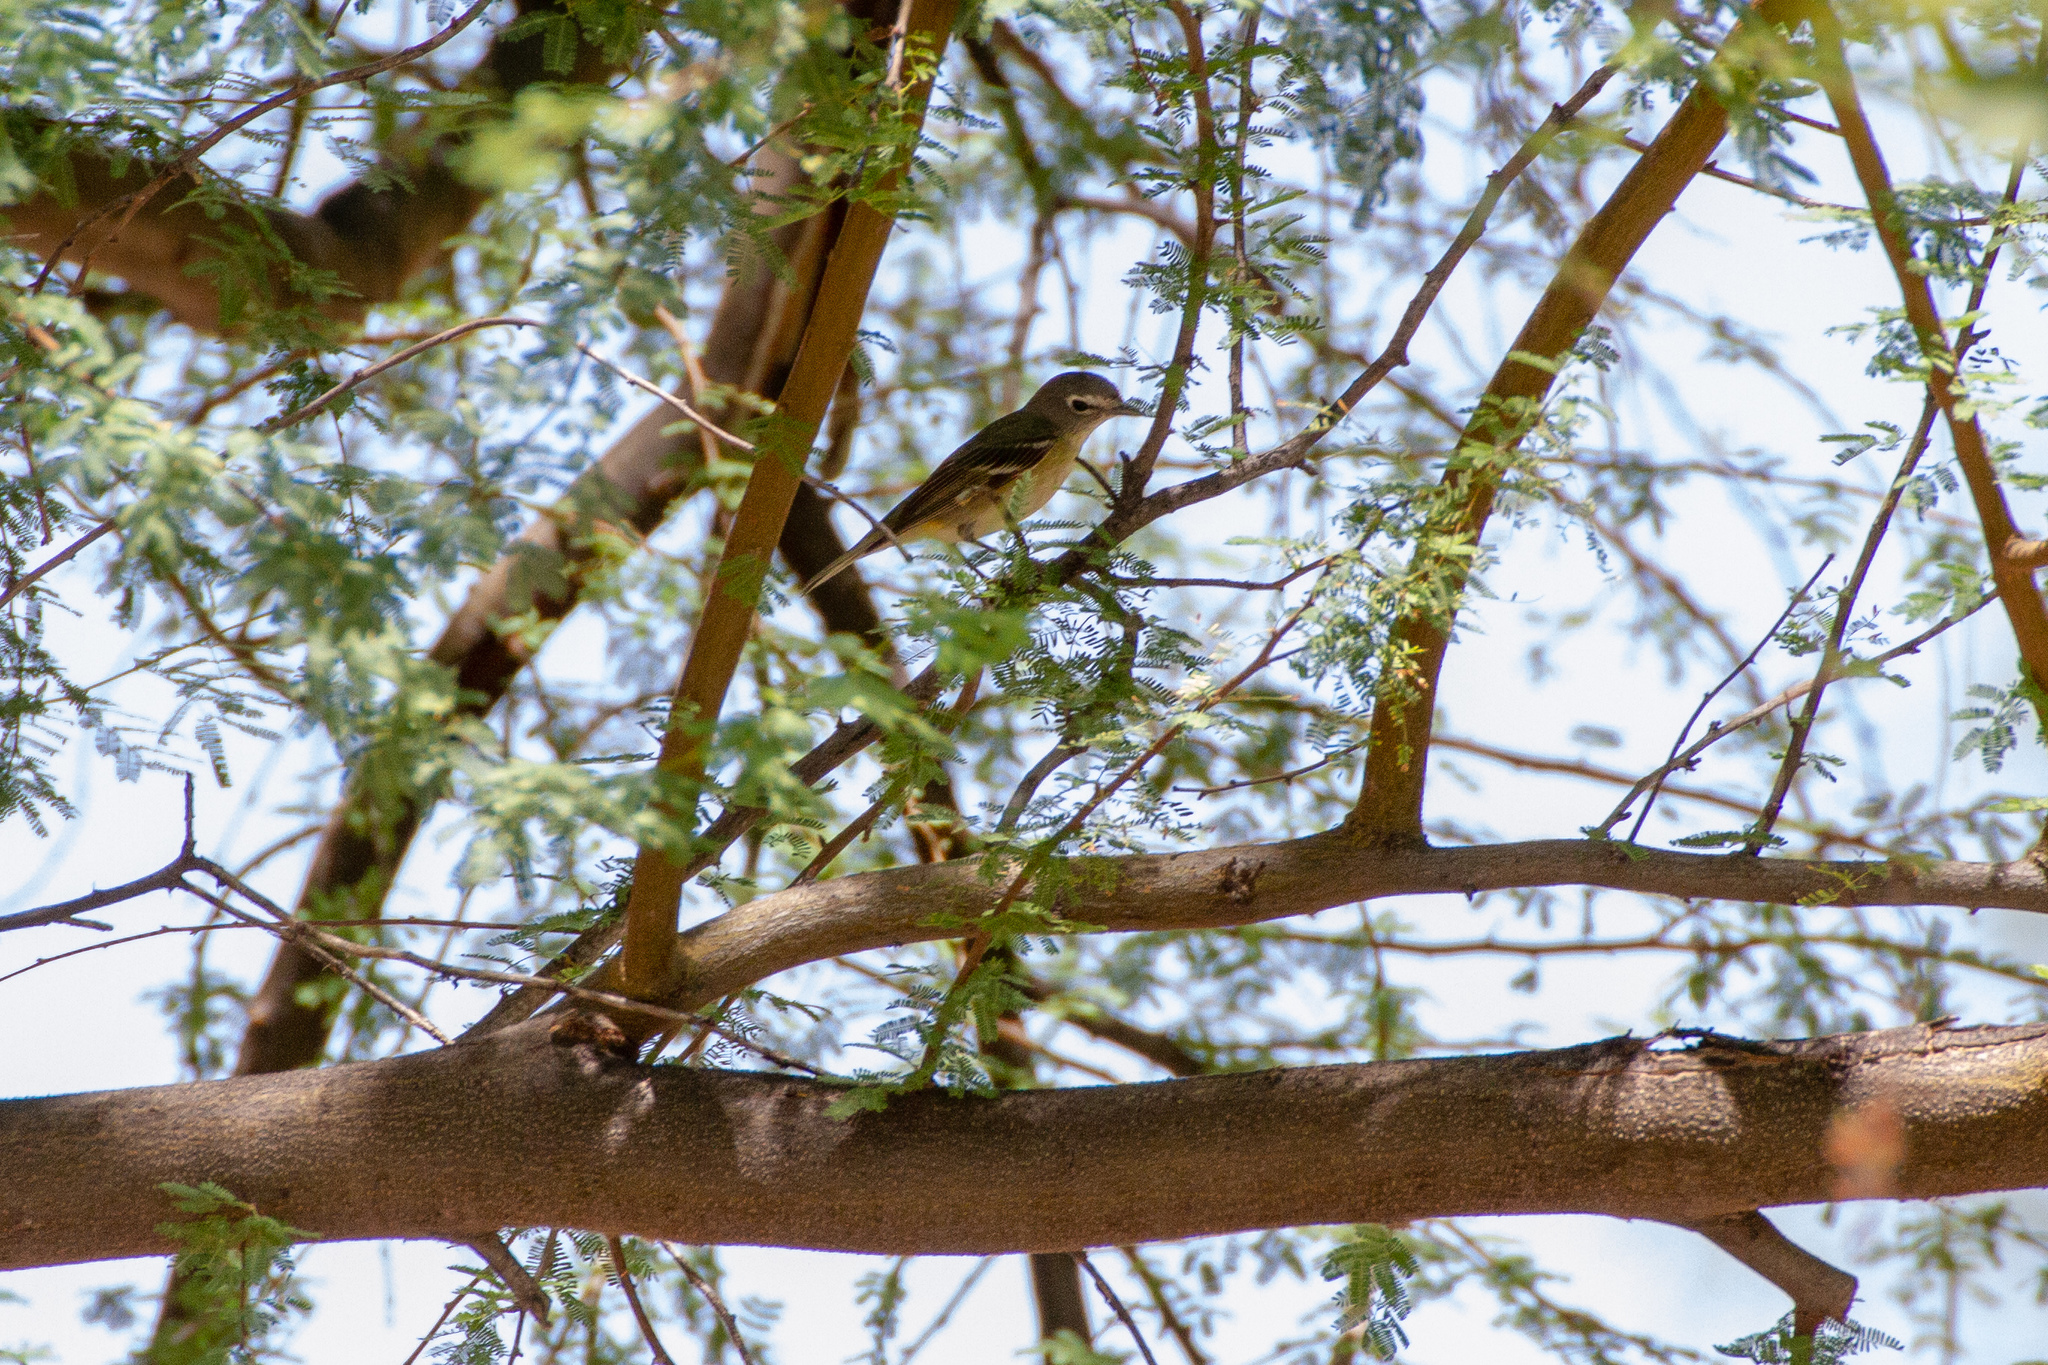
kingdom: Animalia
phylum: Chordata
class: Aves
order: Passeriformes
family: Vireonidae
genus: Vireo
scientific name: Vireo cassinii
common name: Cassin's vireo
